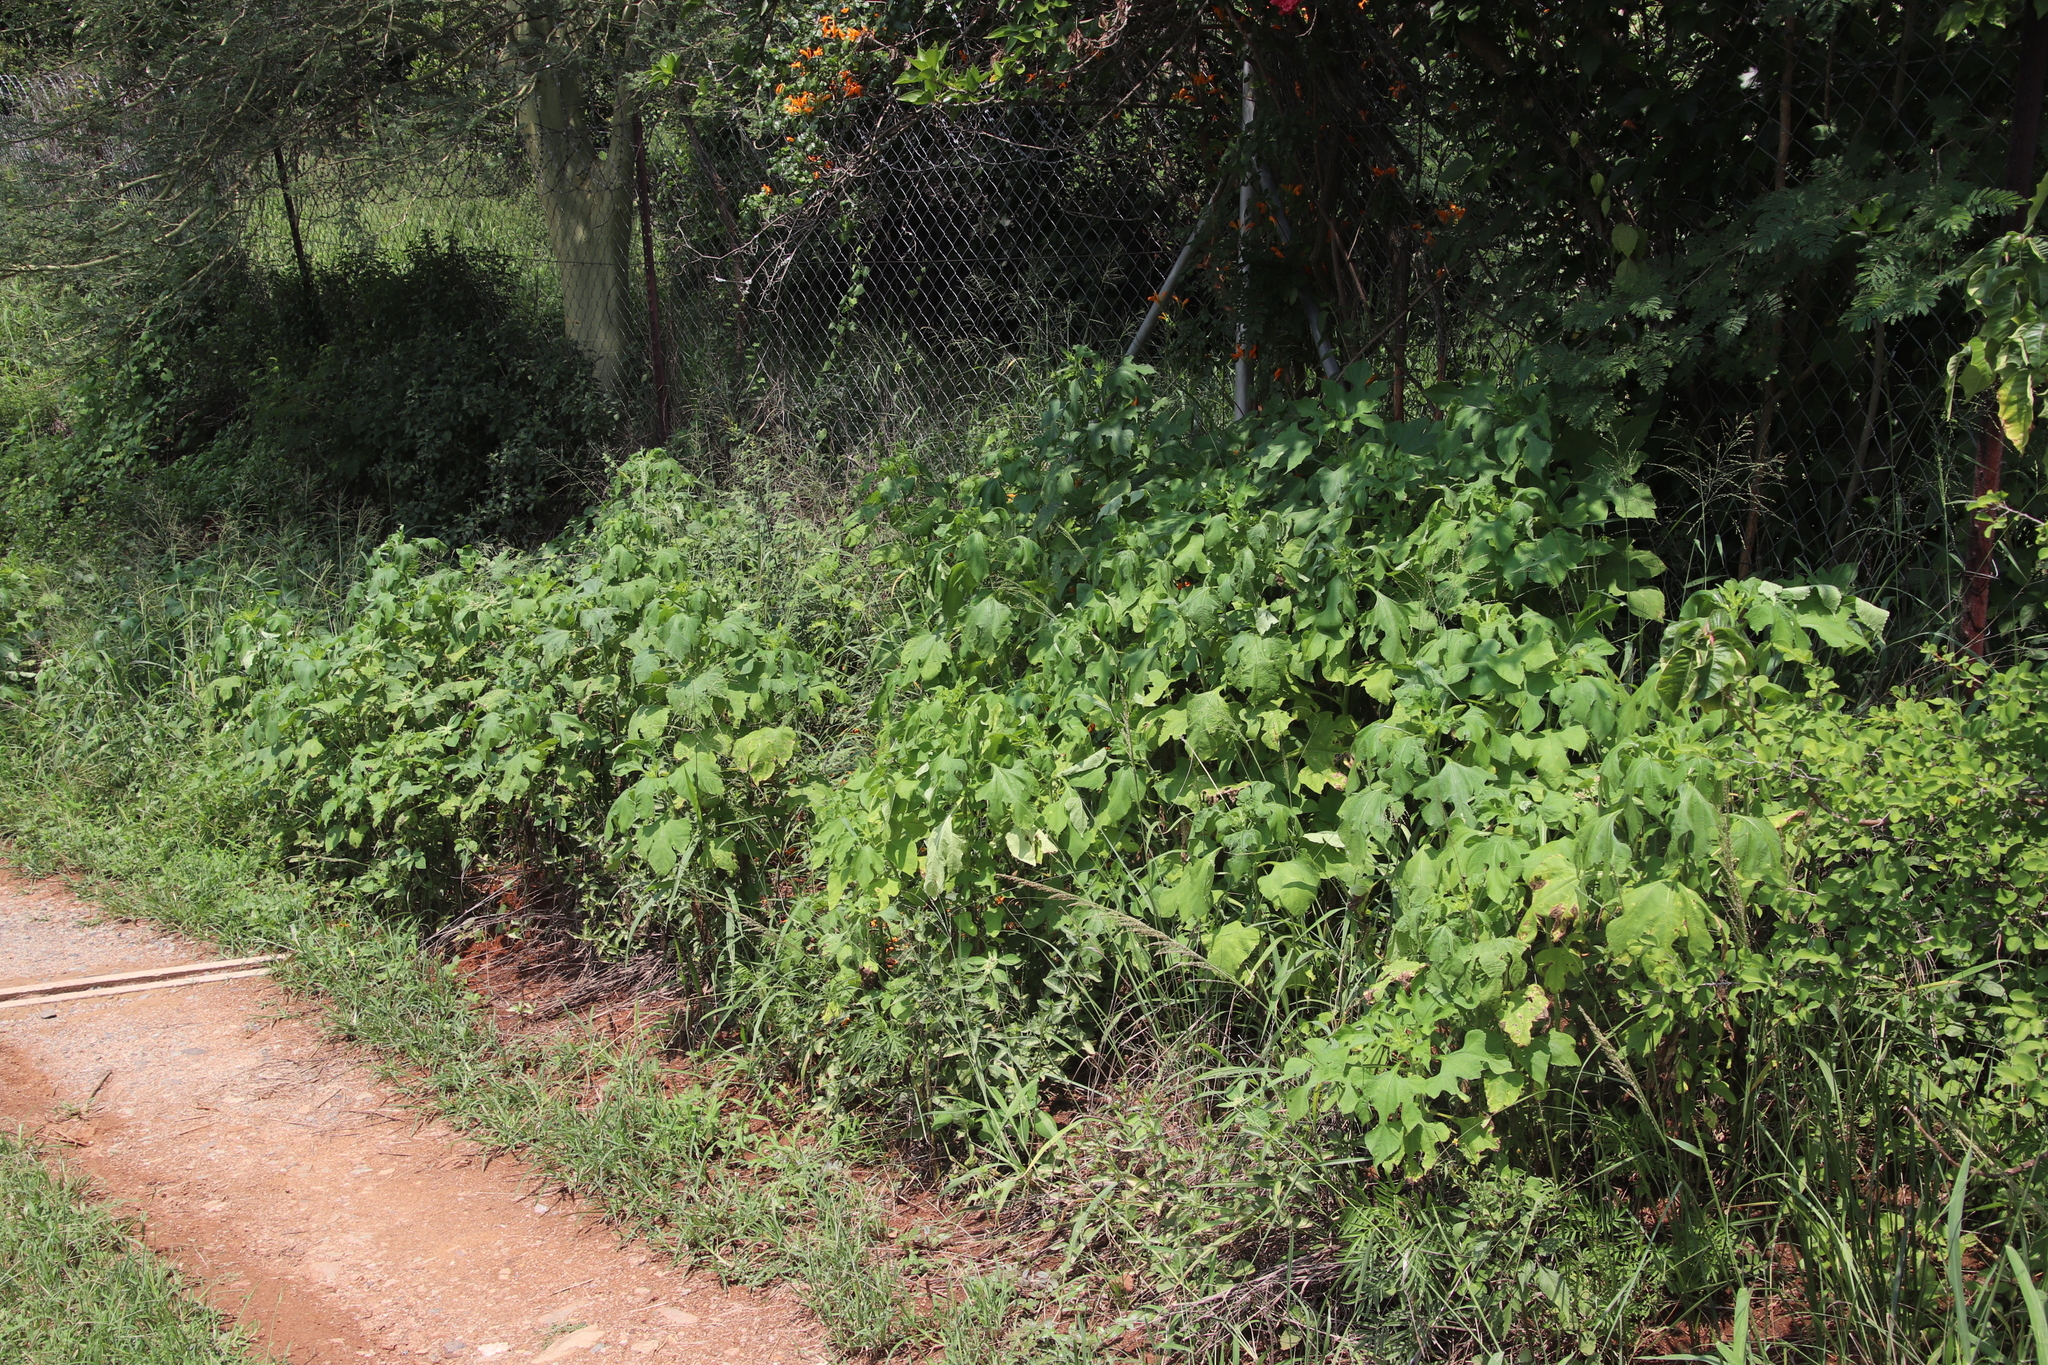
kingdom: Plantae
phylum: Tracheophyta
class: Magnoliopsida
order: Malpighiales
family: Euphorbiaceae
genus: Euphorbia
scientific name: Euphorbia heterophylla
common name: Mexican fireplant
